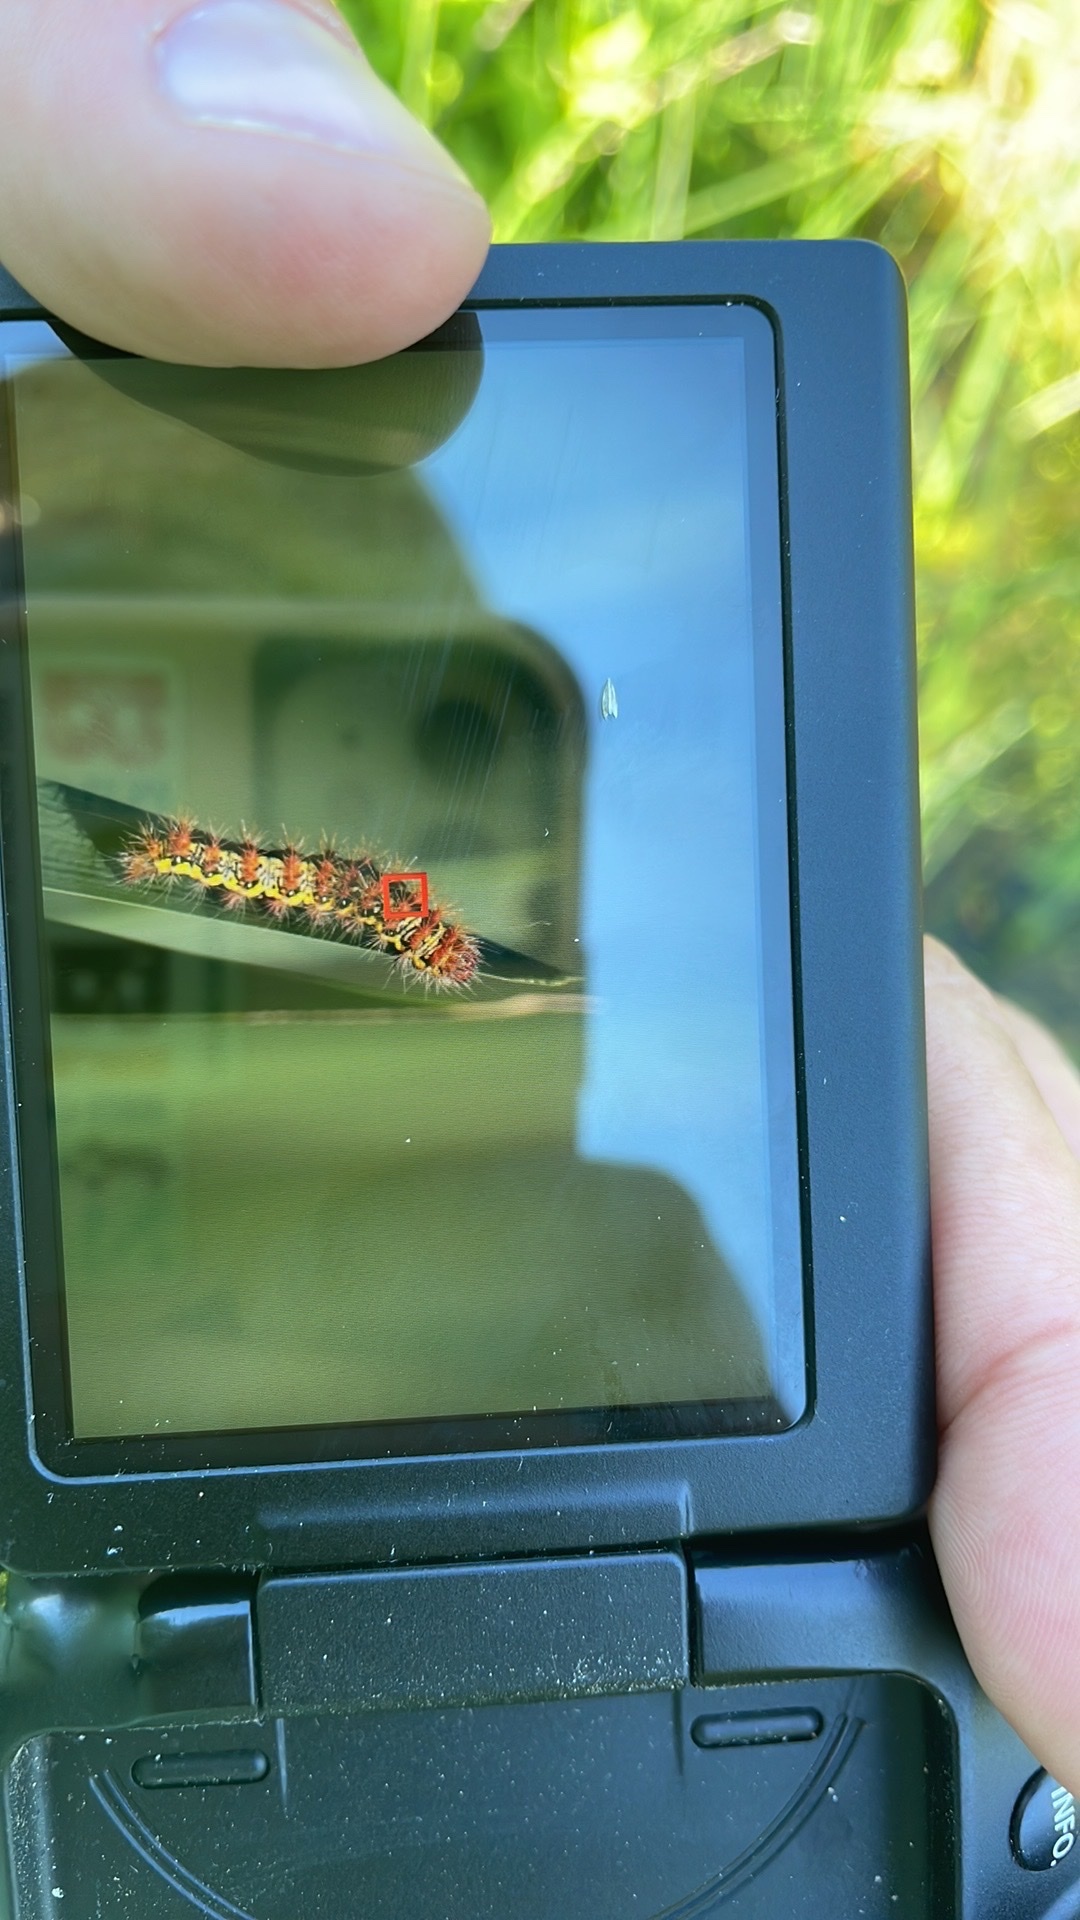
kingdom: Animalia
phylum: Arthropoda
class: Insecta
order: Lepidoptera
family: Noctuidae
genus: Acronicta
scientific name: Acronicta oblinita
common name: Smeared dagger
